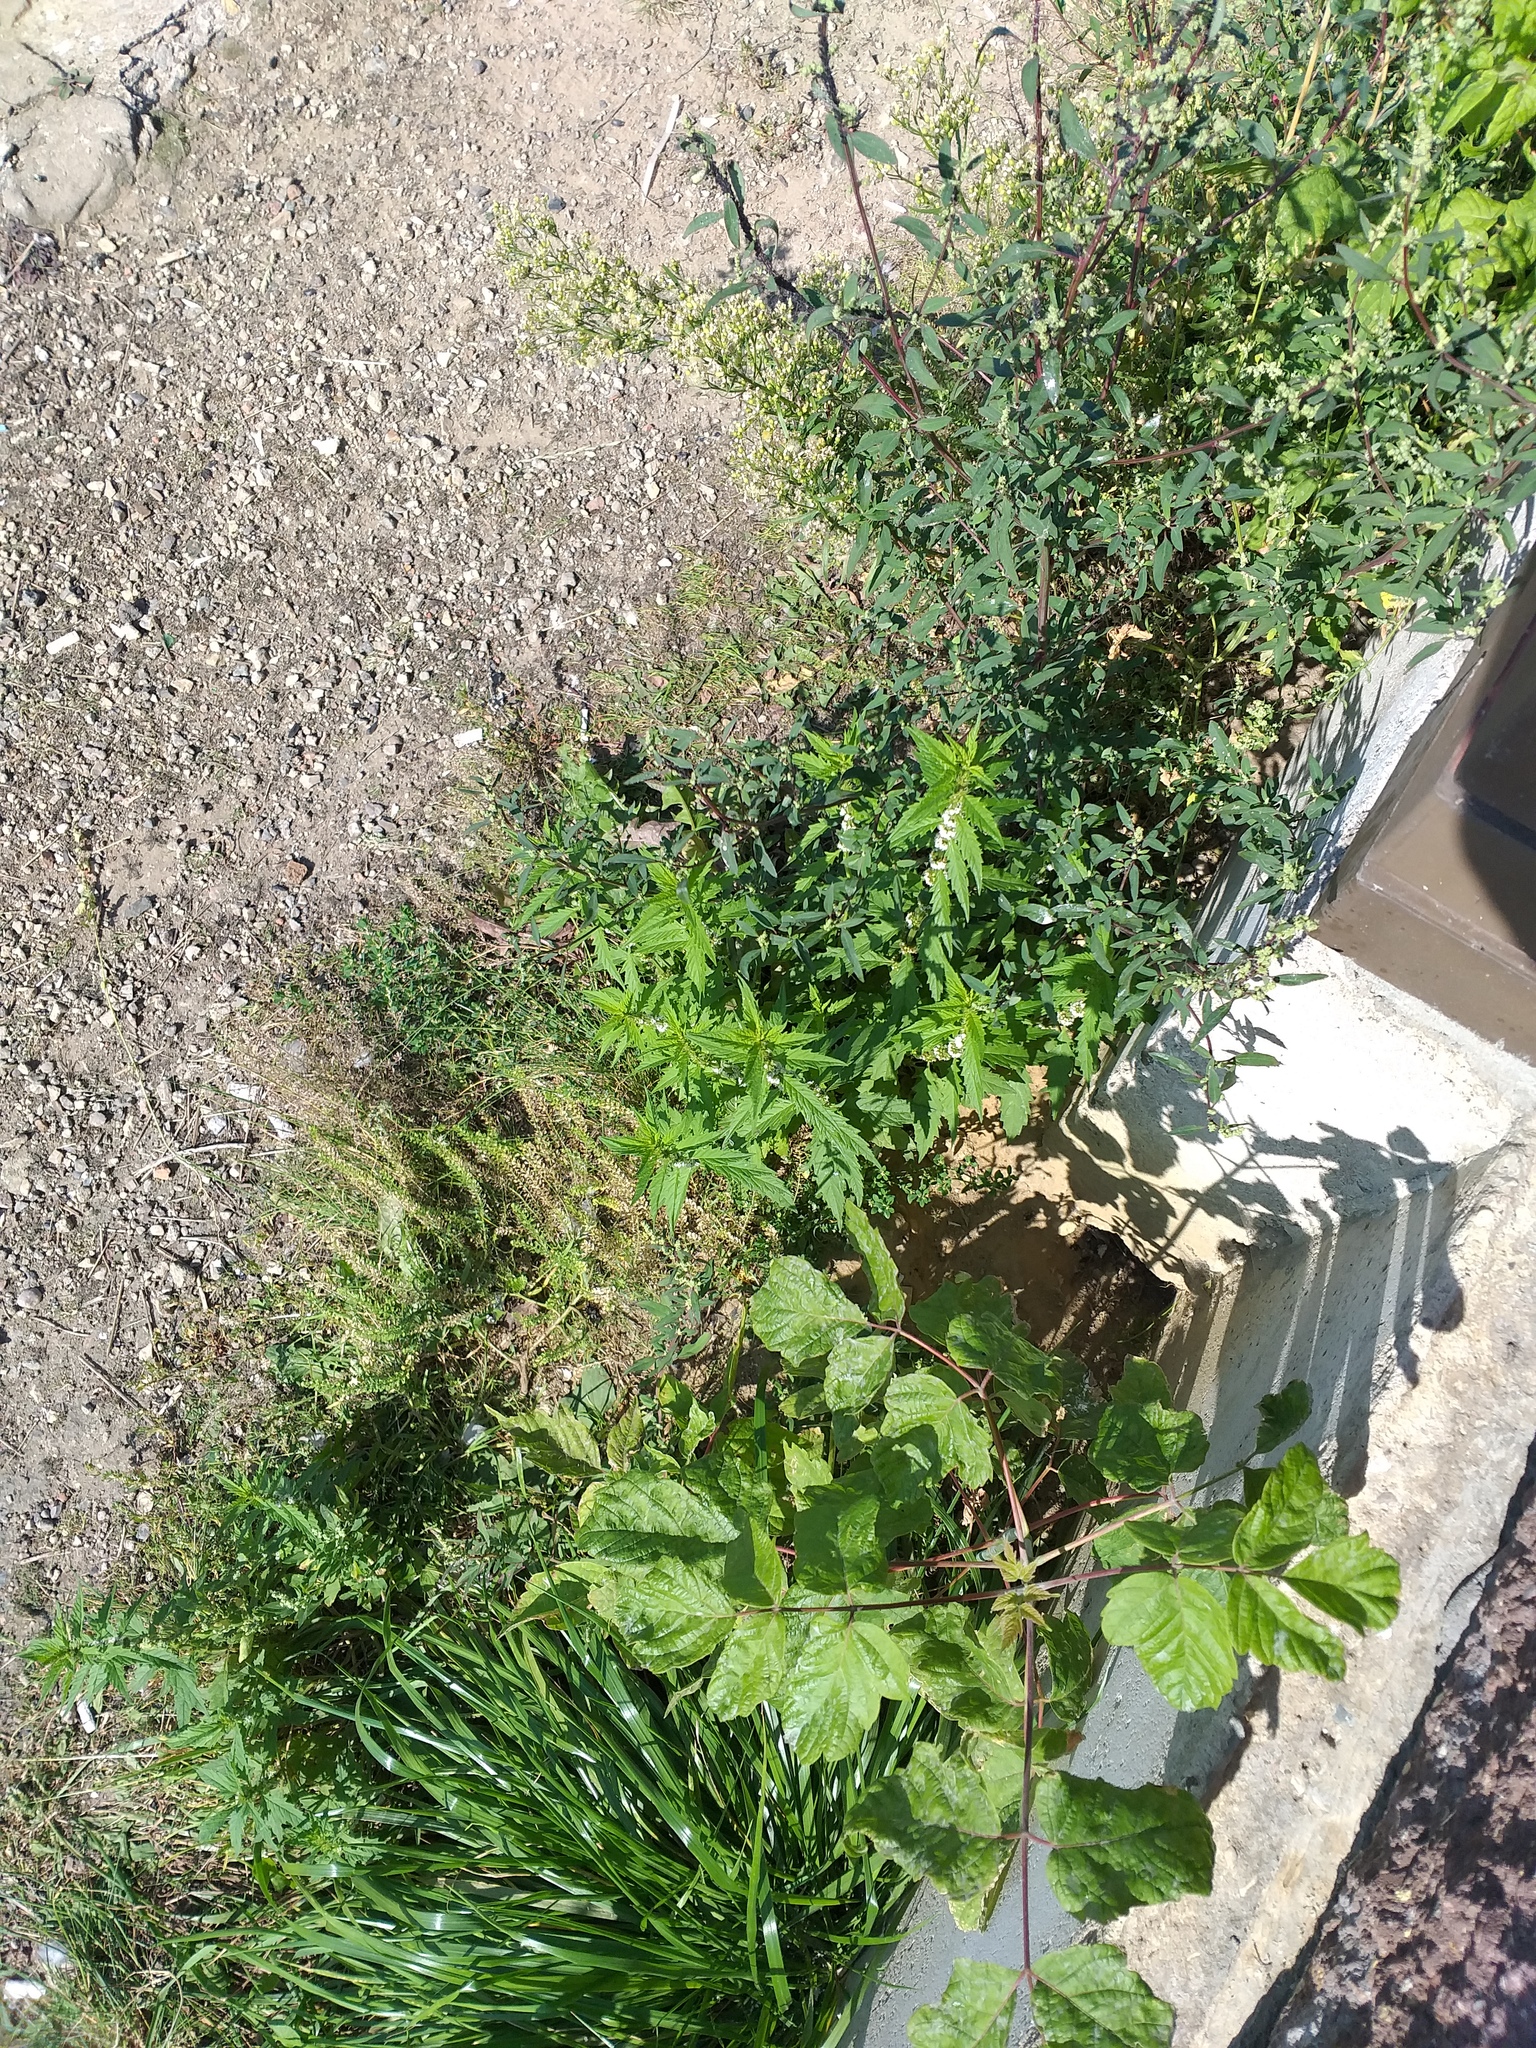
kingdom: Plantae
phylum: Tracheophyta
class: Magnoliopsida
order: Lamiales
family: Lamiaceae
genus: Lycopus
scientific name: Lycopus europaeus
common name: European bugleweed
